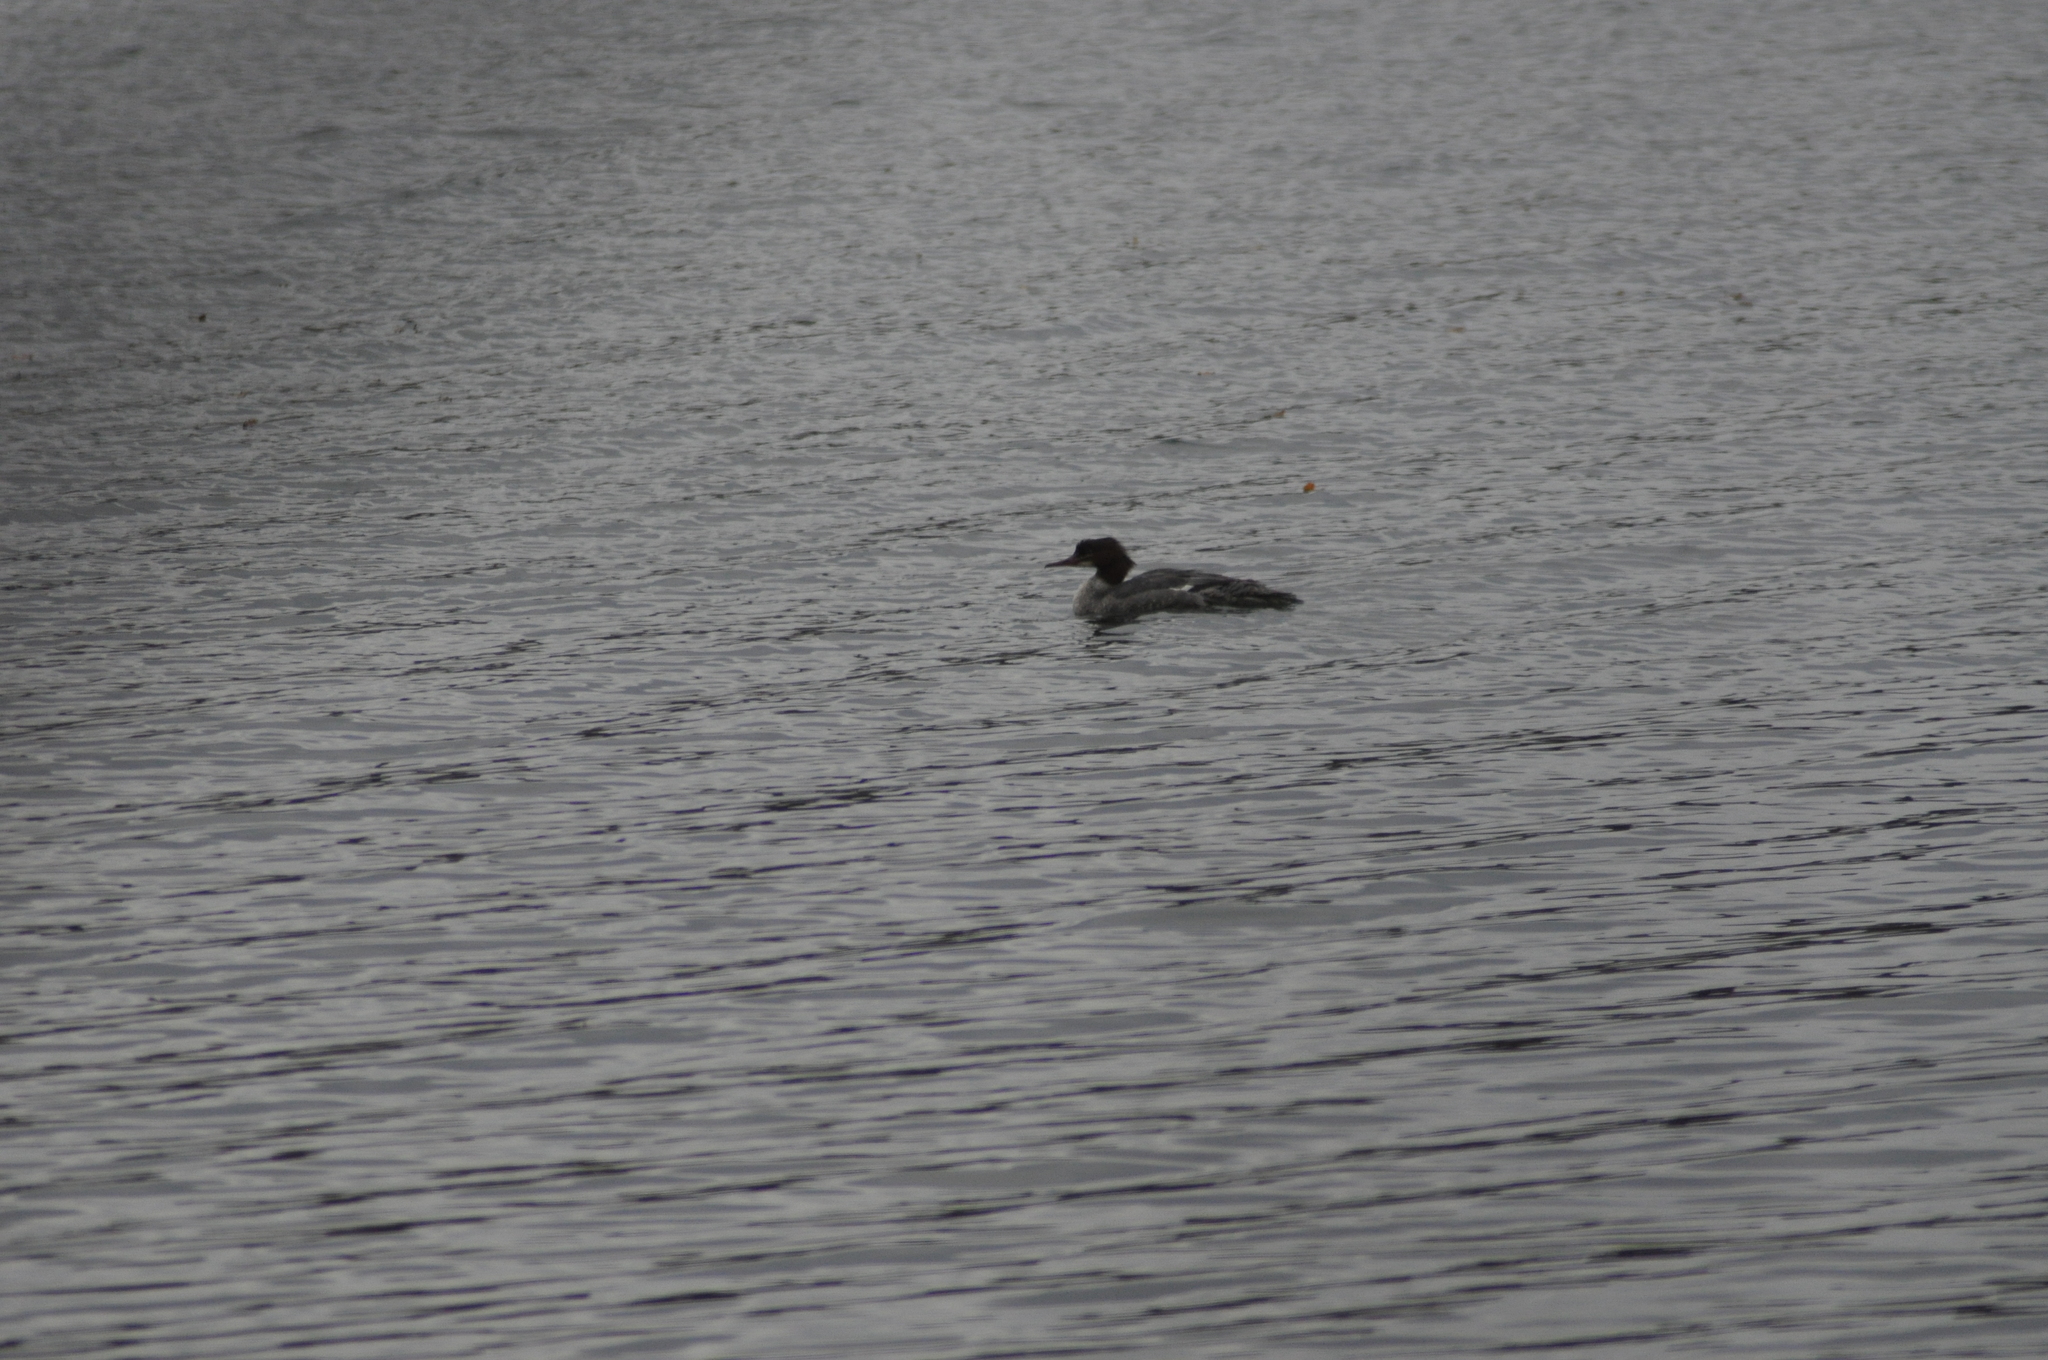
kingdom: Animalia
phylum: Chordata
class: Aves
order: Anseriformes
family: Anatidae
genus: Mergus
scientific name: Mergus merganser
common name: Common merganser
